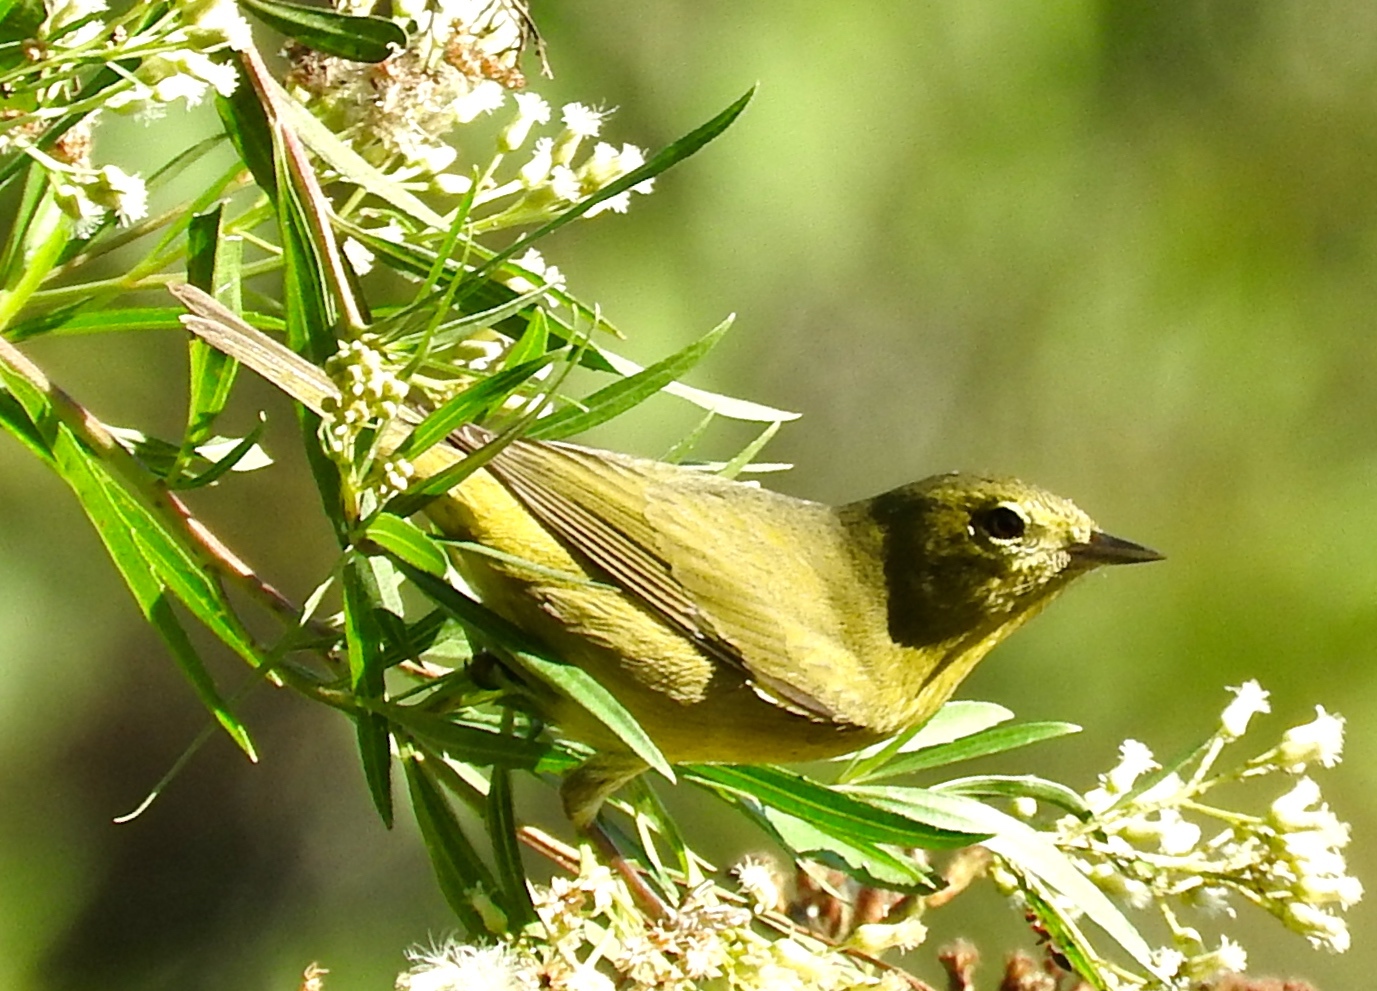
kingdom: Animalia
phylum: Chordata
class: Aves
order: Passeriformes
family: Parulidae
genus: Leiothlypis
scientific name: Leiothlypis celata
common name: Orange-crowned warbler
